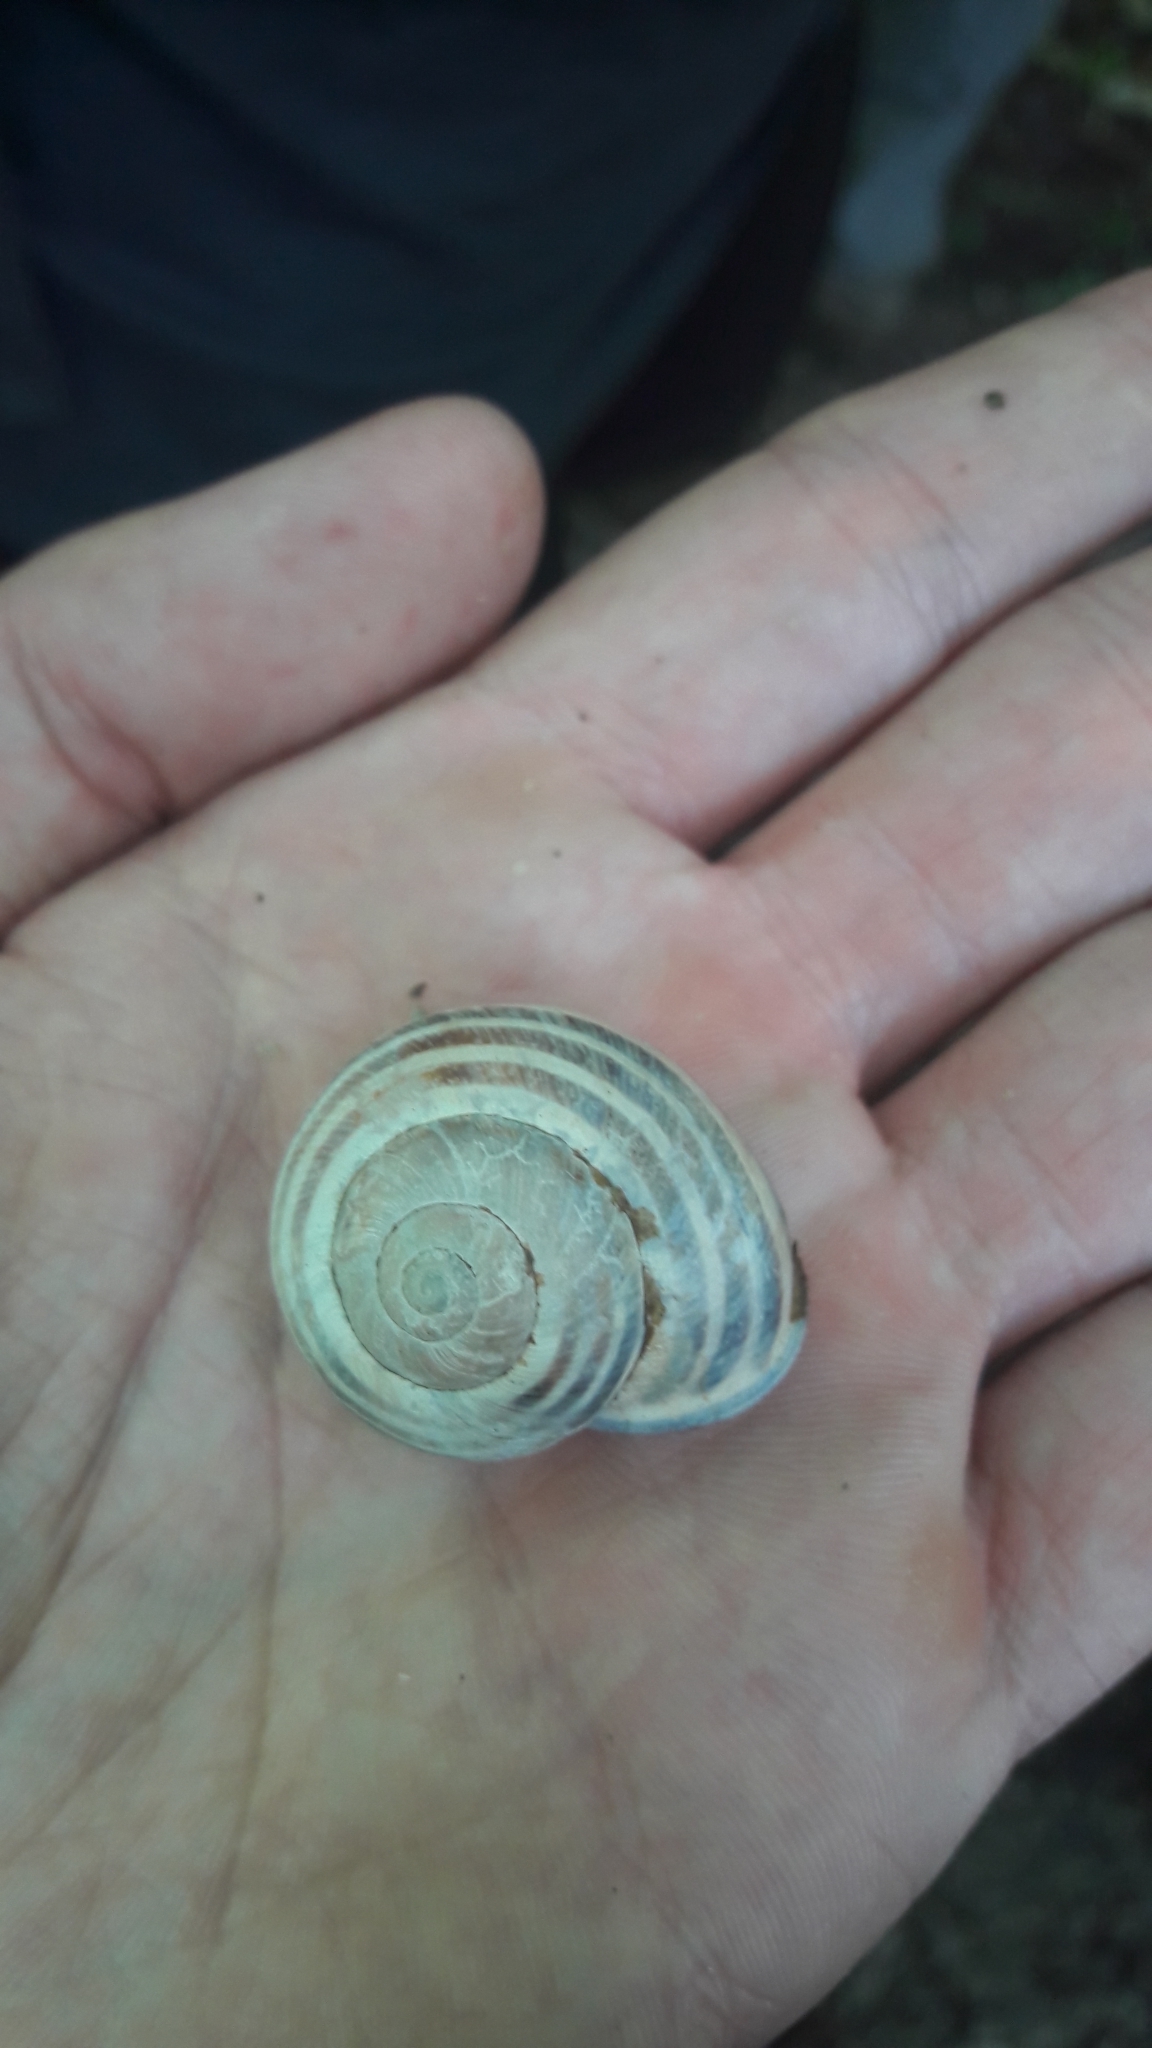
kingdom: Animalia
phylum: Mollusca
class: Gastropoda
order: Stylommatophora
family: Helicidae
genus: Cepaea
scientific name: Cepaea nemoralis
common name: Grovesnail
